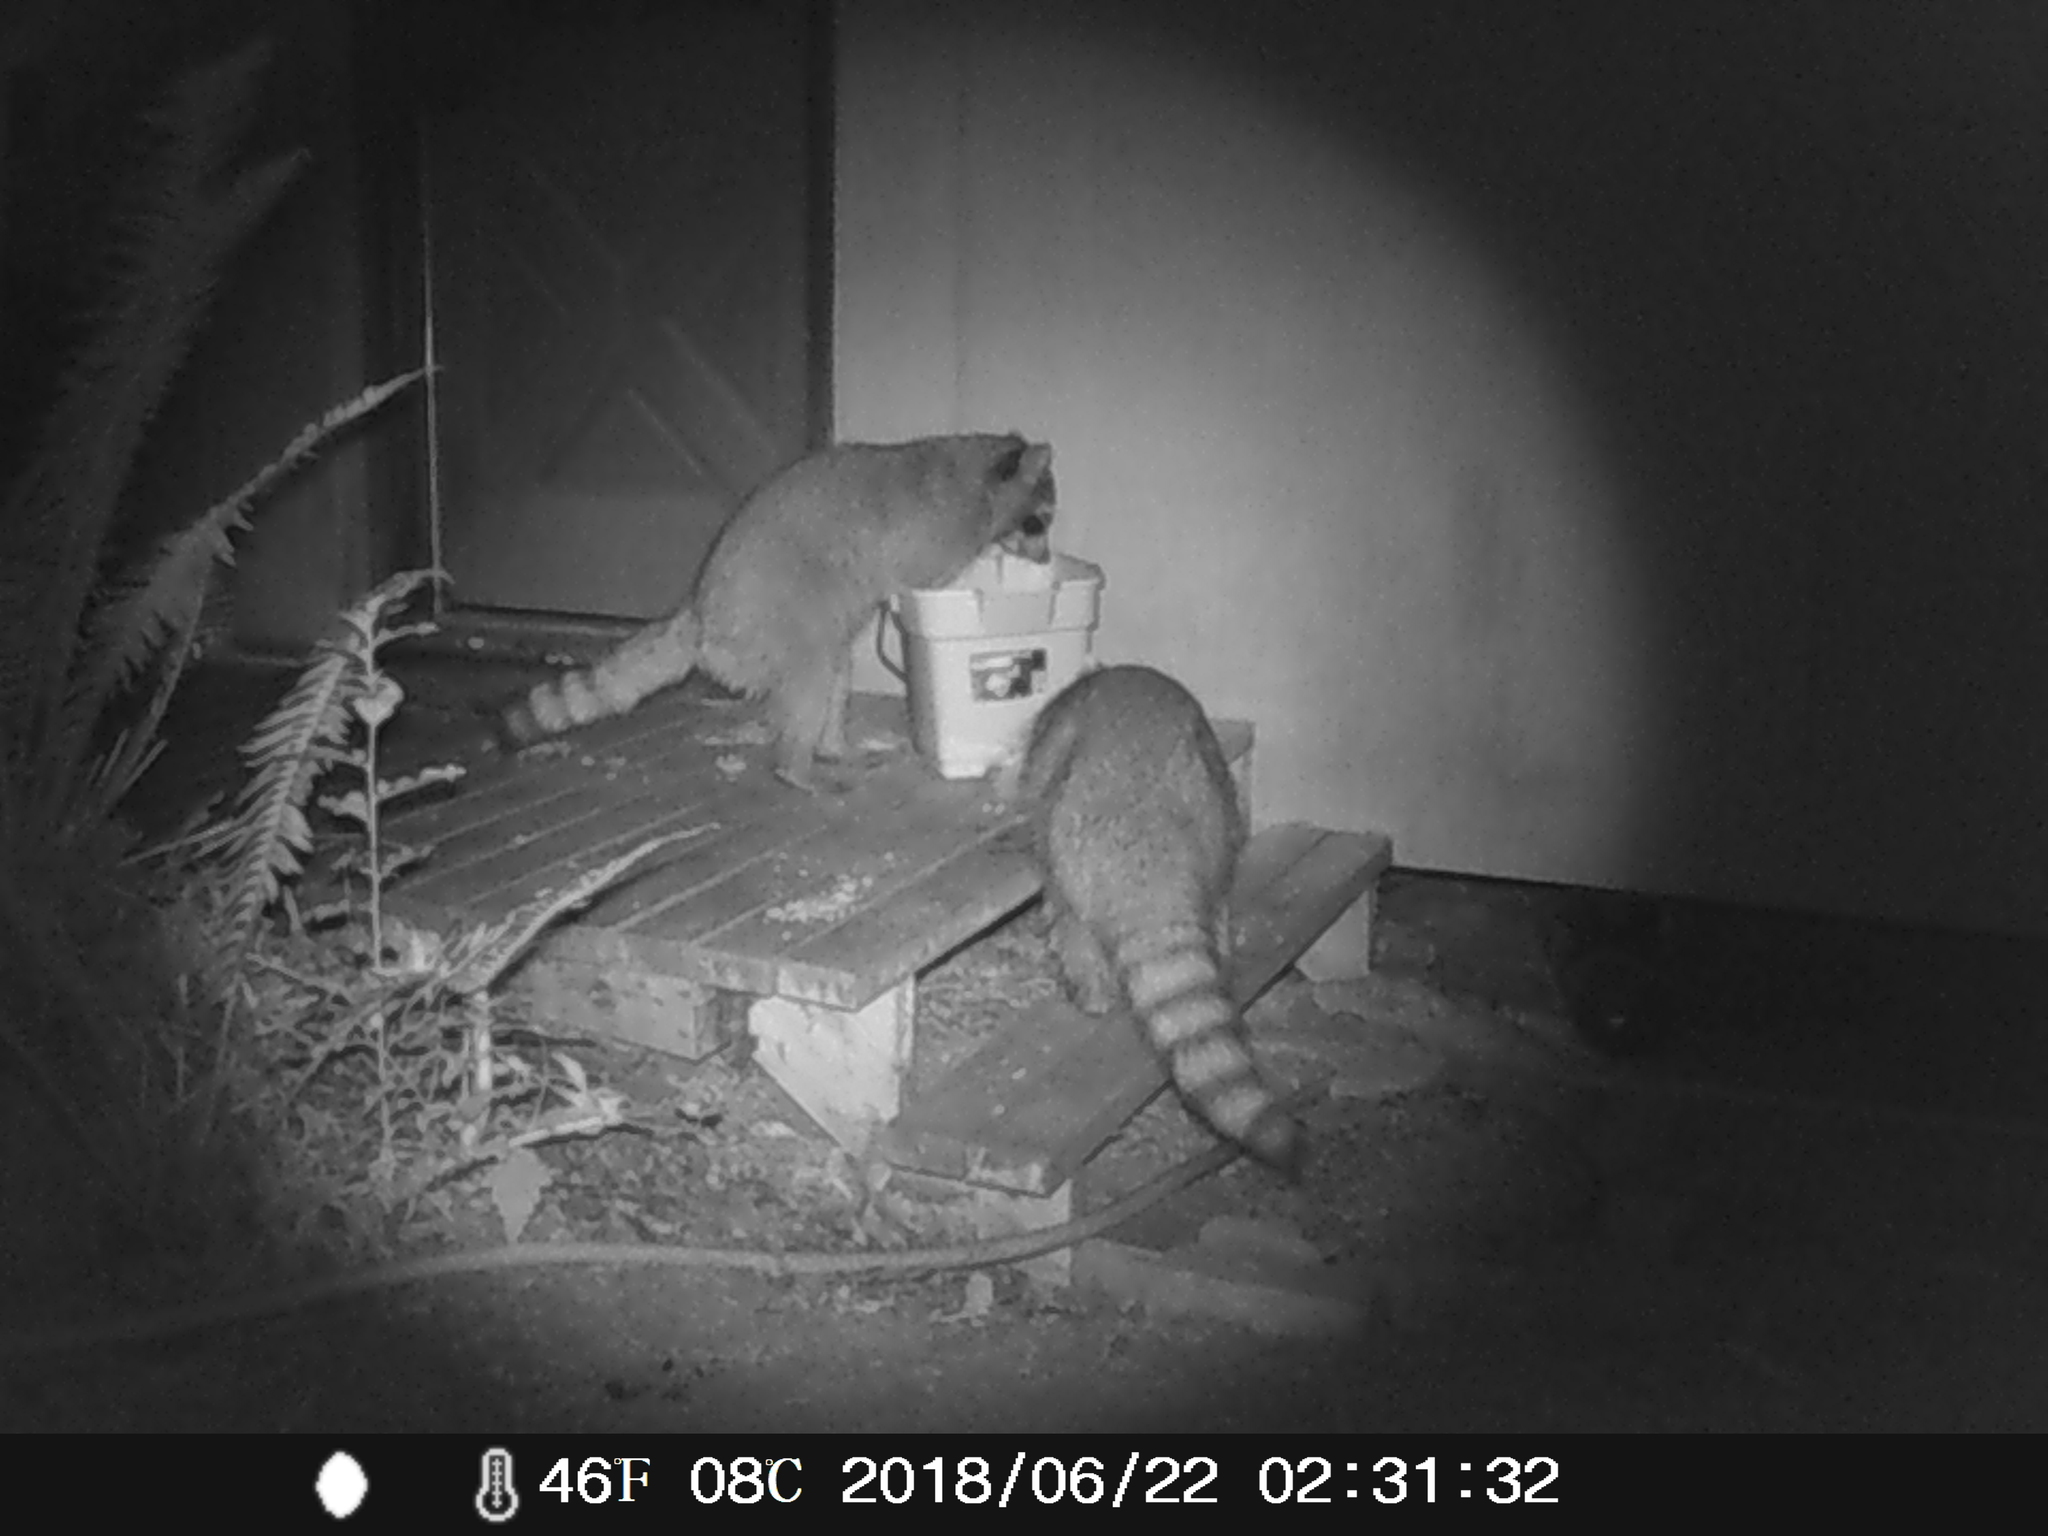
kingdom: Animalia
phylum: Chordata
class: Mammalia
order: Carnivora
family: Procyonidae
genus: Procyon
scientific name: Procyon lotor
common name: Raccoon
